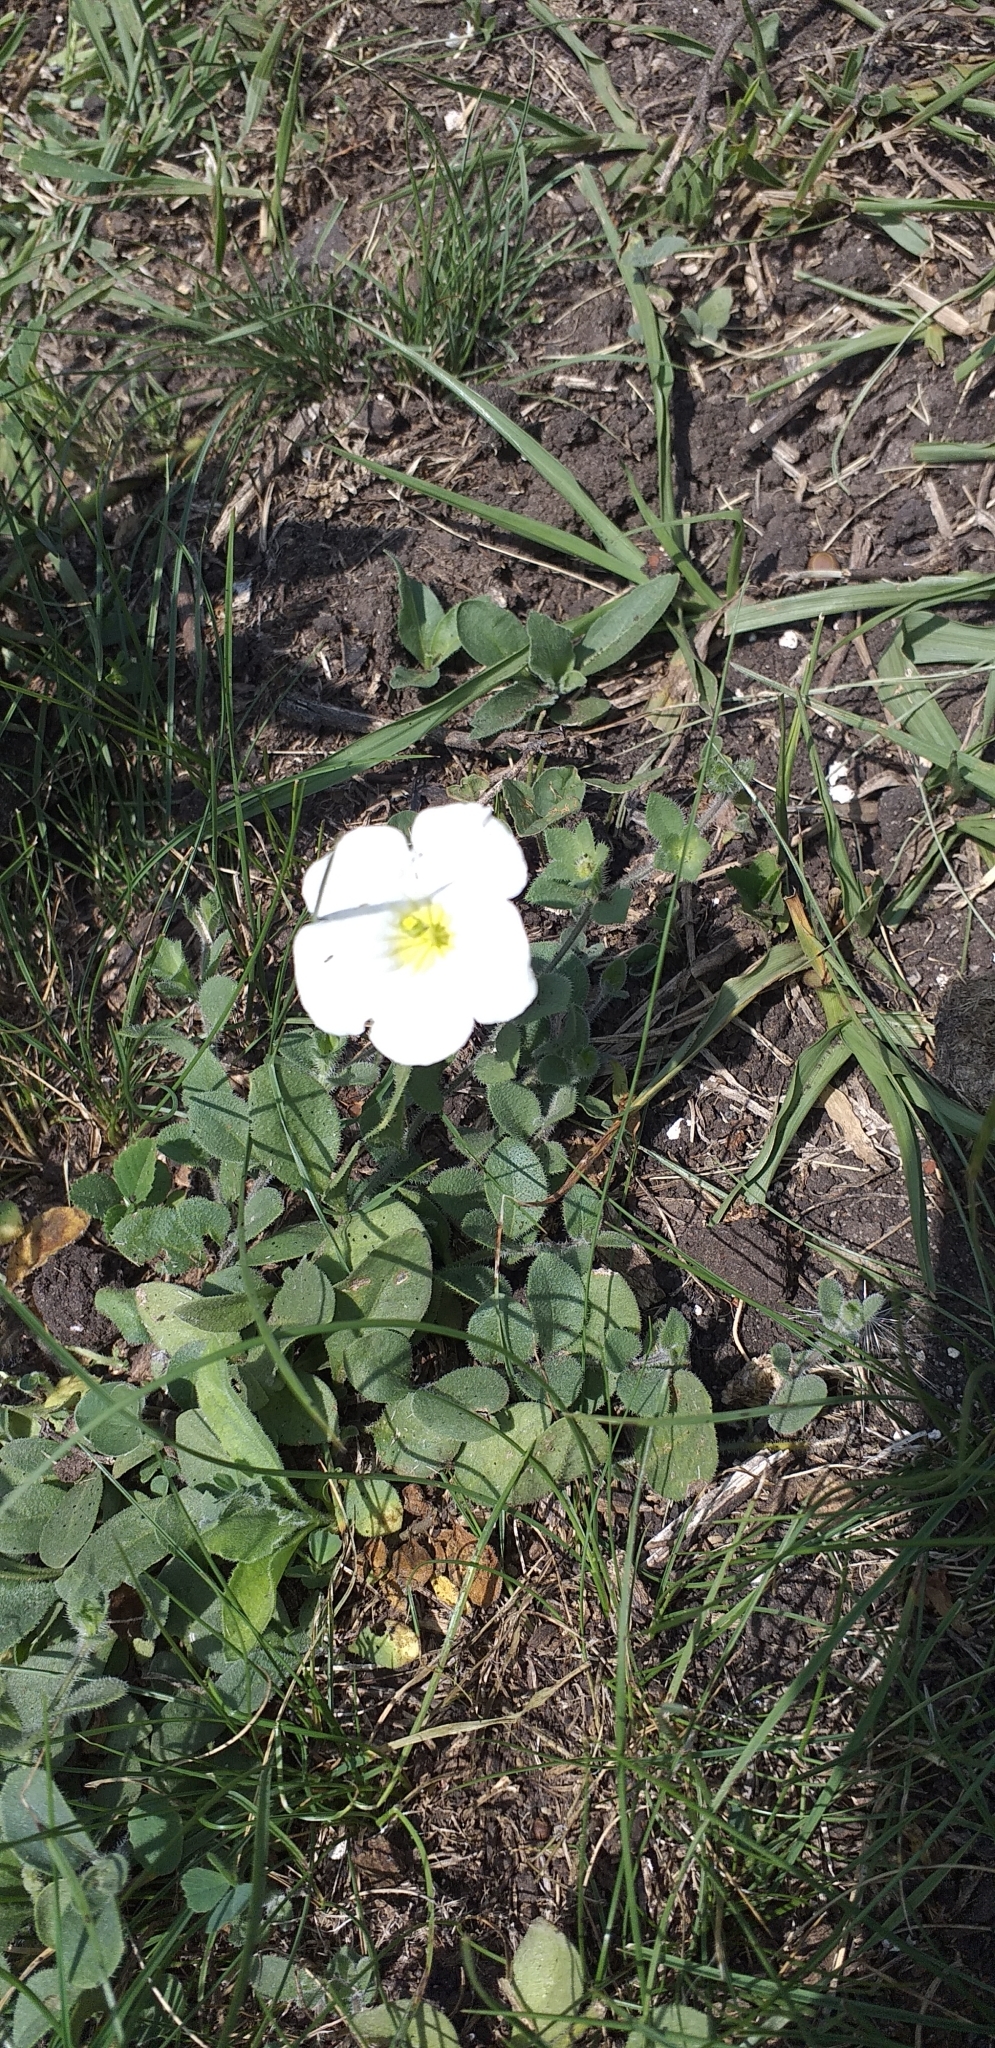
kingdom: Plantae
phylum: Tracheophyta
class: Magnoliopsida
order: Solanales
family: Solanaceae
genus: Nierembergia
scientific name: Nierembergia calycina
